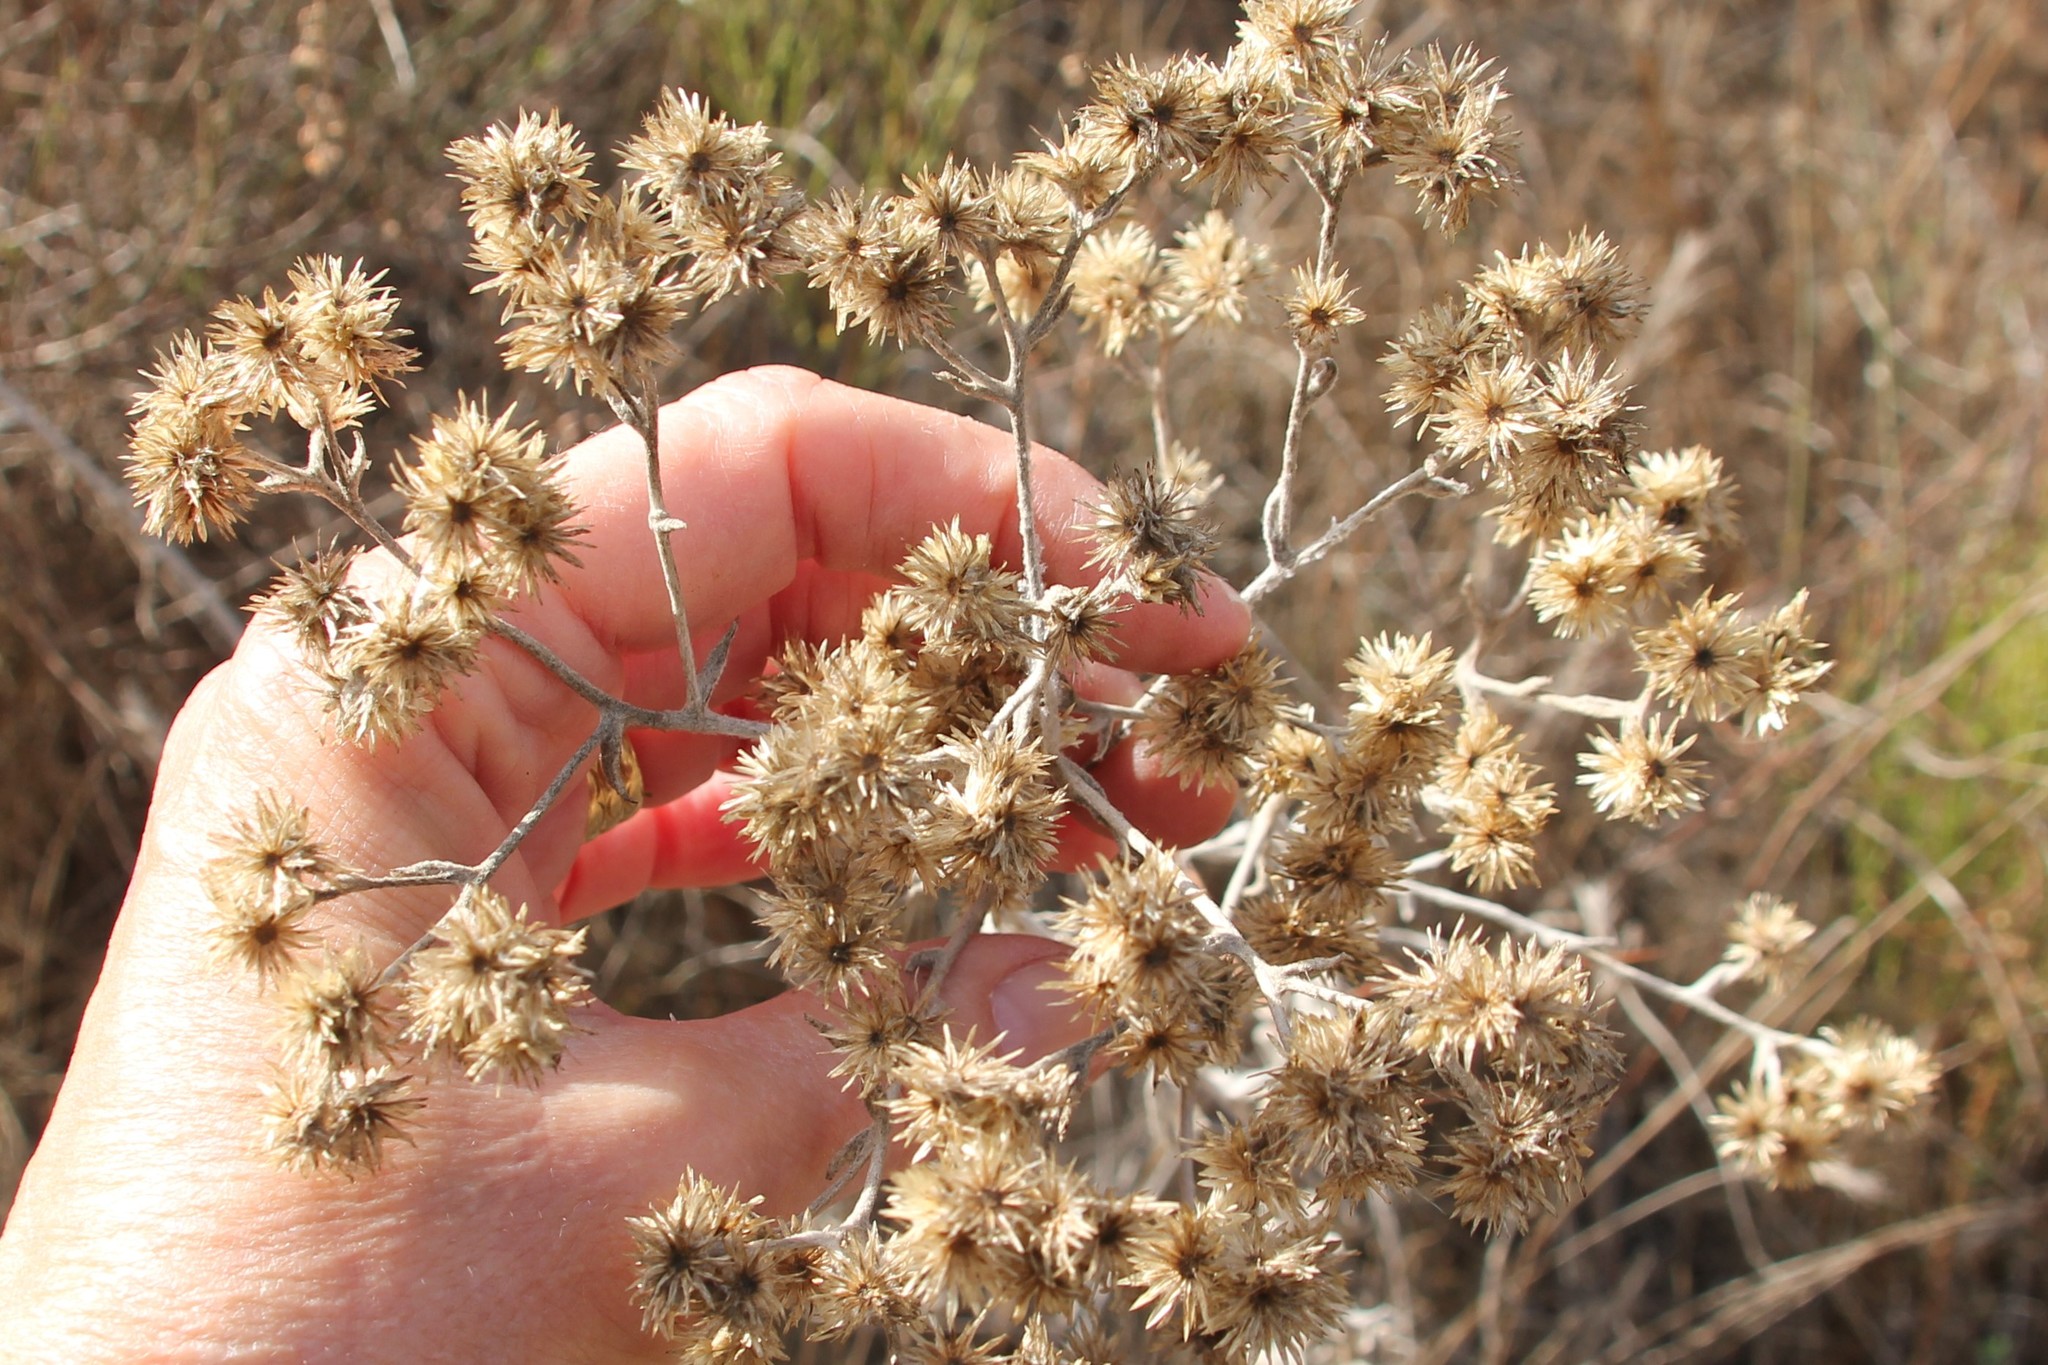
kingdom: Plantae
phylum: Tracheophyta
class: Magnoliopsida
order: Asterales
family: Asteraceae
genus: Pseudognaphalium
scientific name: Pseudognaphalium microcephalum
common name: San diego rabbit-tobacco
